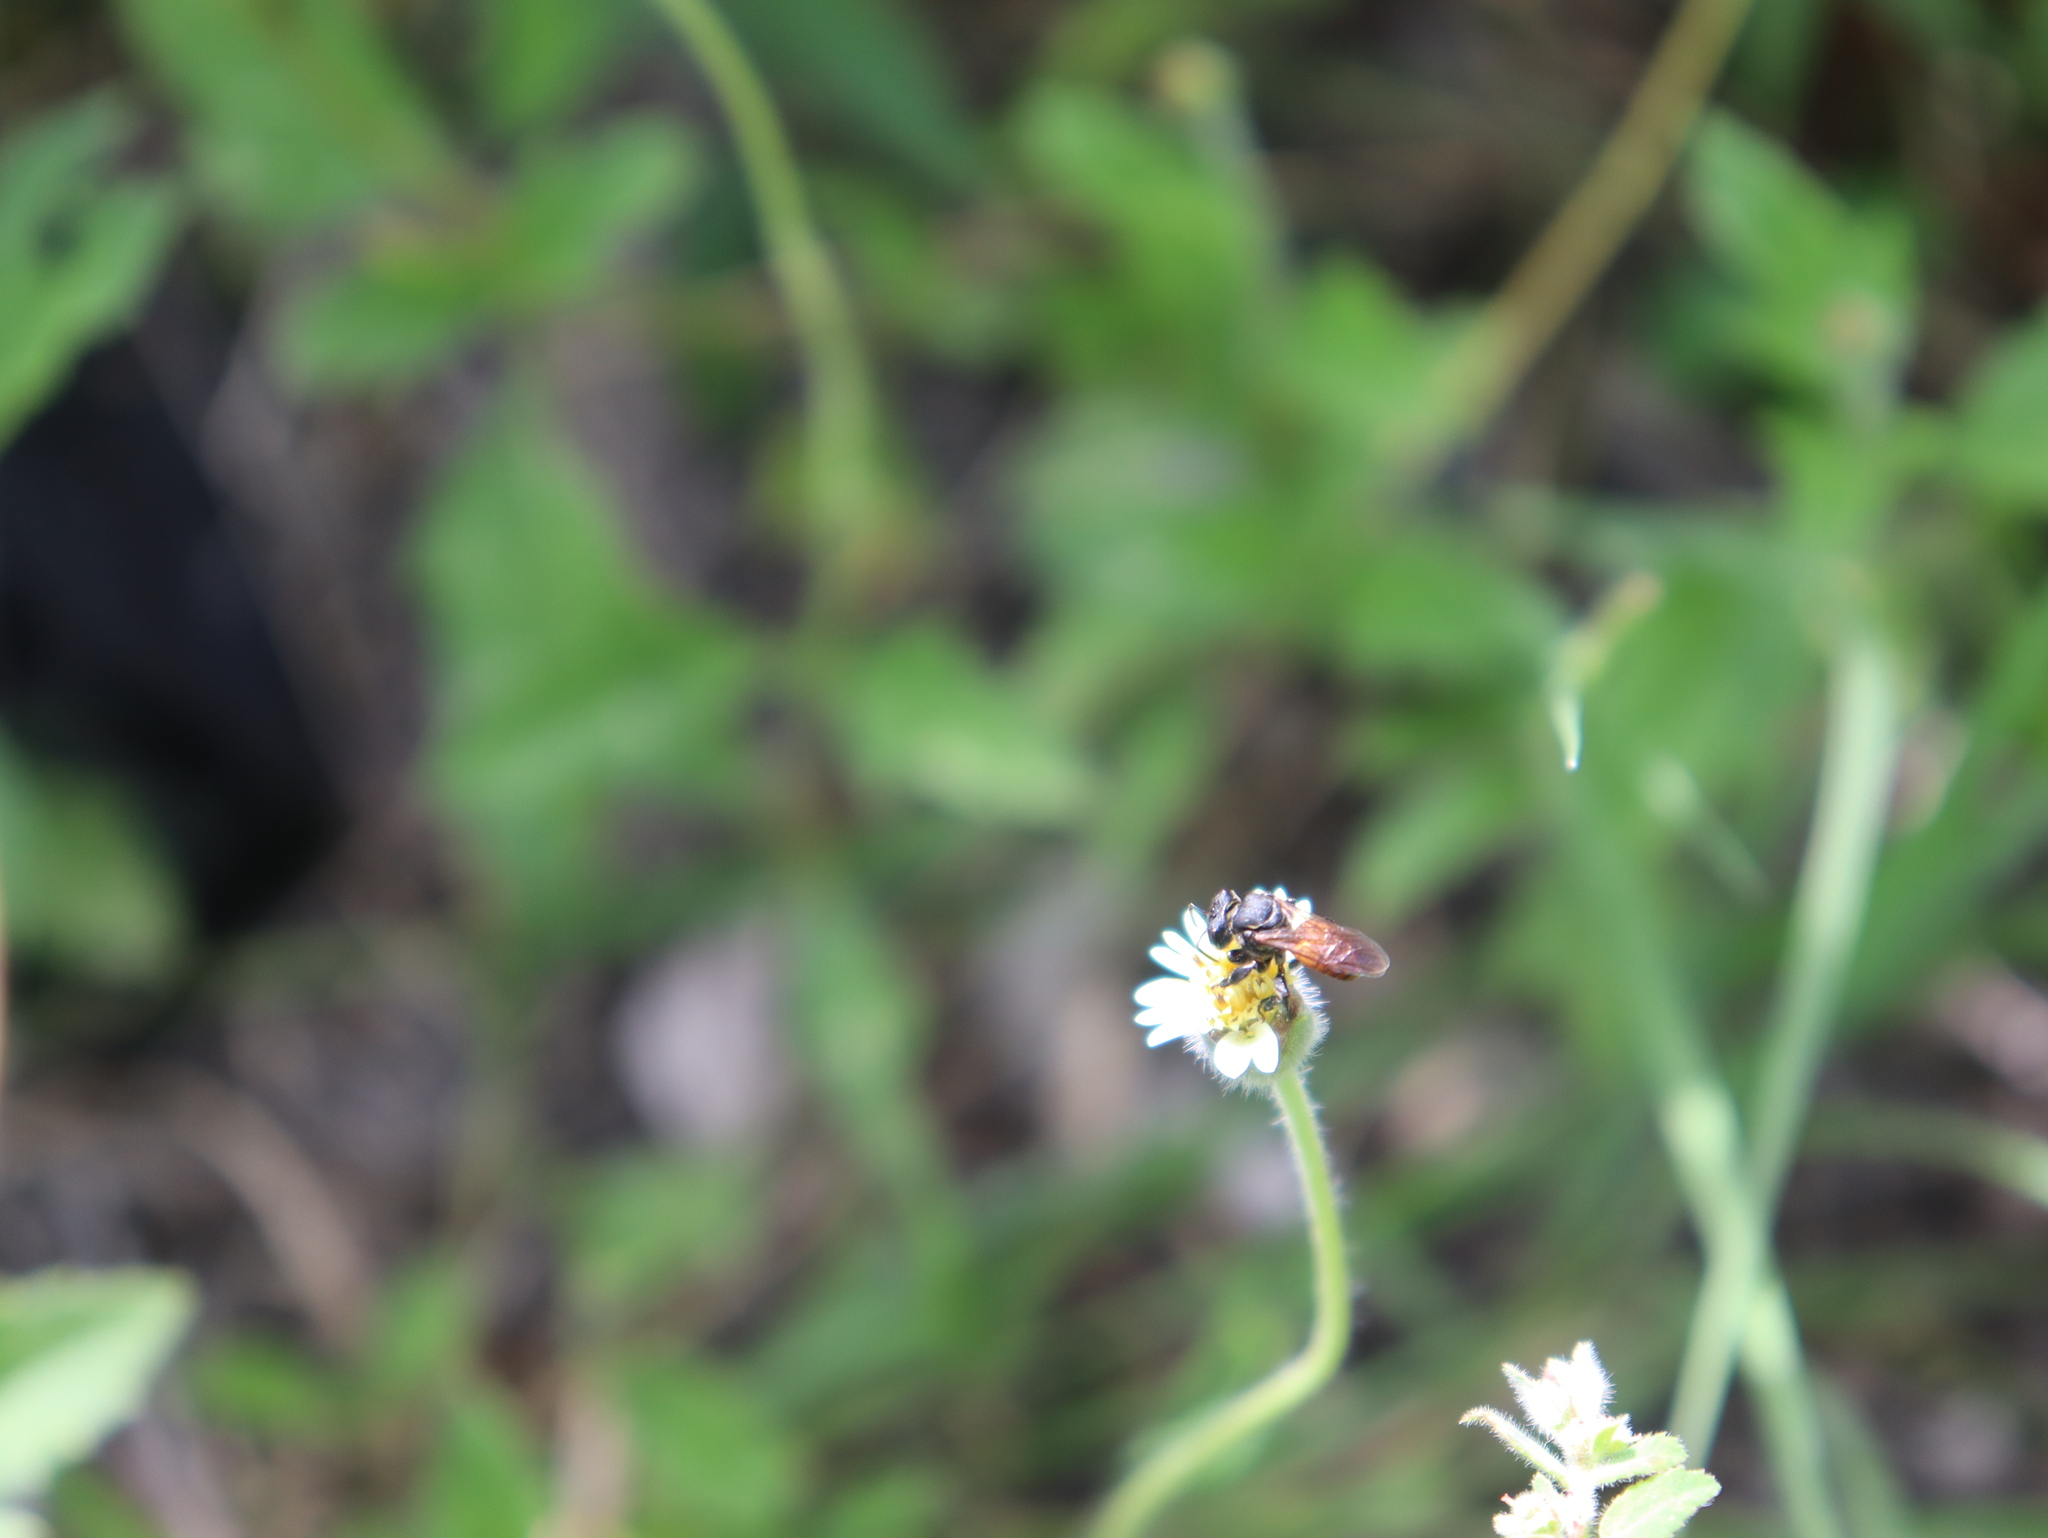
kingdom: Animalia
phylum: Arthropoda
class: Insecta
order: Hymenoptera
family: Apidae
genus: Cephalotrigona
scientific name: Cephalotrigona zexmeniae
